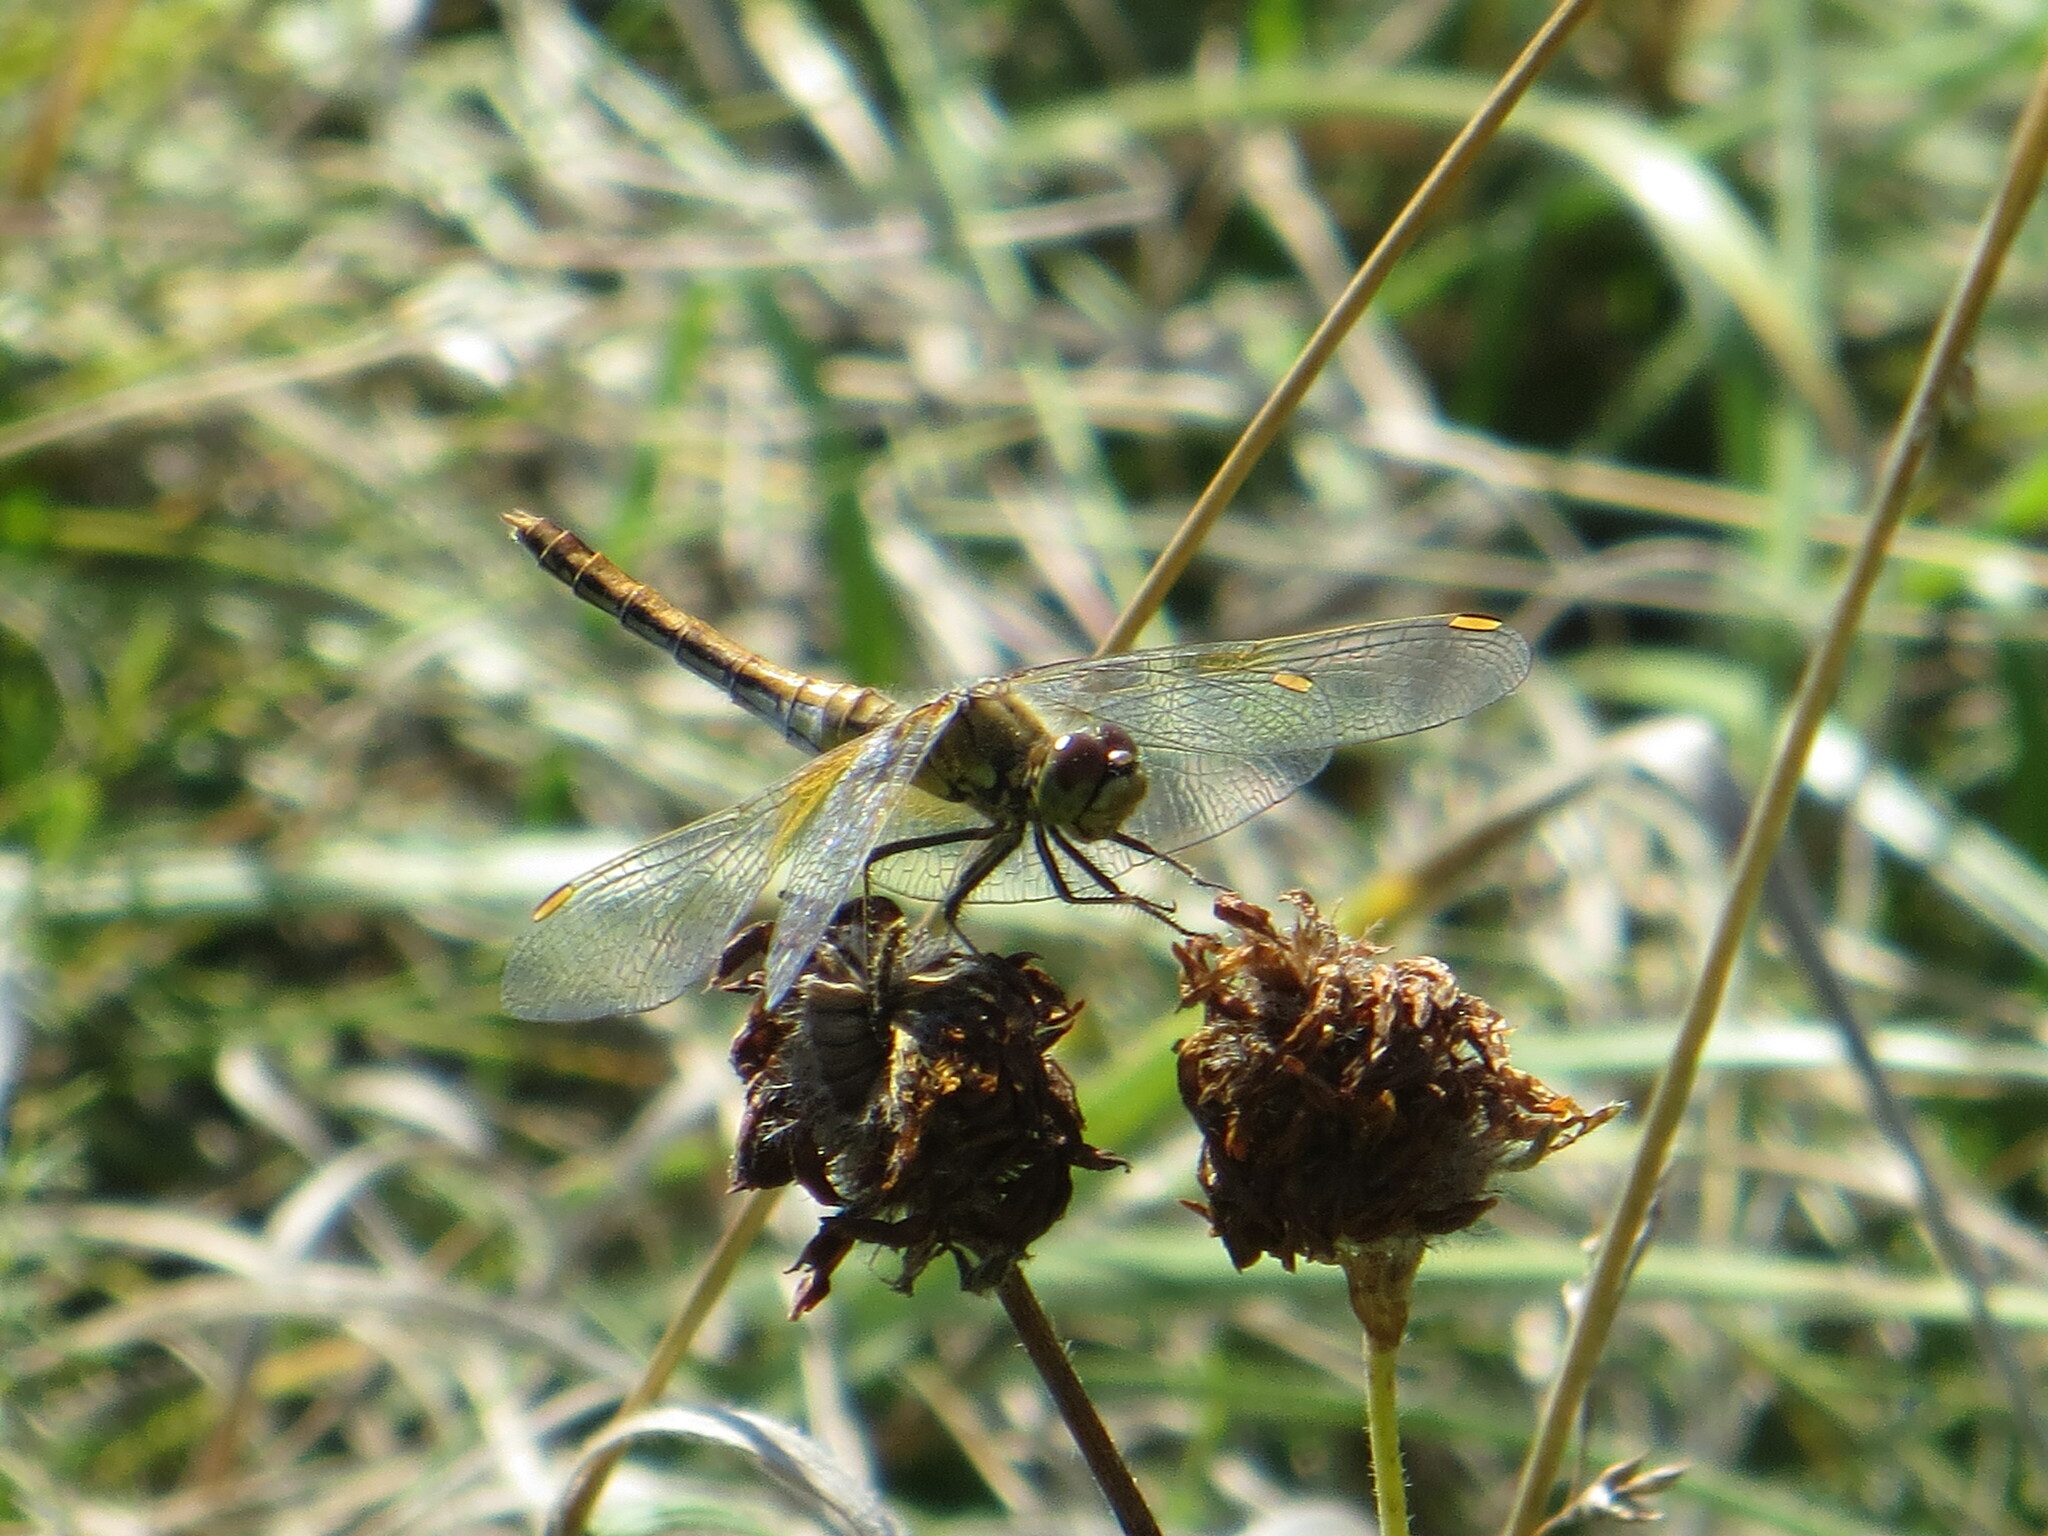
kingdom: Animalia
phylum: Arthropoda
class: Insecta
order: Odonata
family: Libellulidae
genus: Sympetrum
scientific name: Sympetrum flaveolum
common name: Yellow-winged darter
